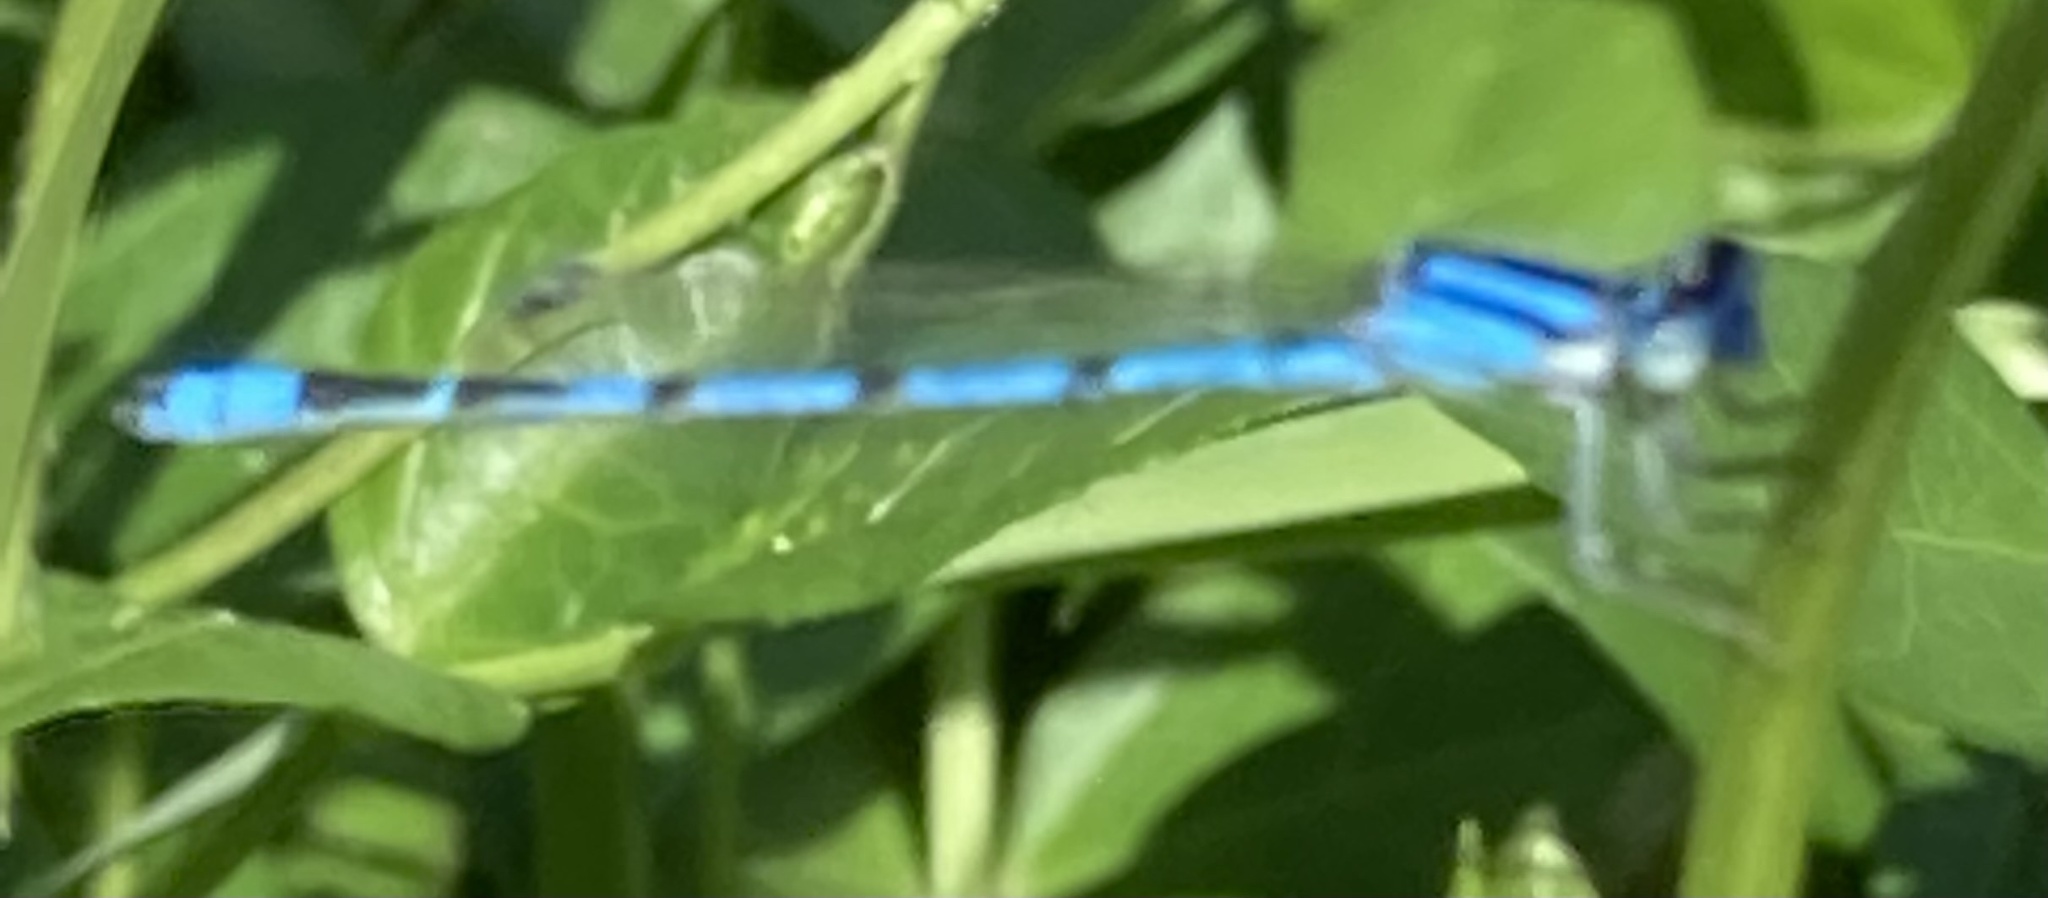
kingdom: Animalia
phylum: Arthropoda
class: Insecta
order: Odonata
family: Coenagrionidae
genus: Enallagma
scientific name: Enallagma civile
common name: Damselfly
